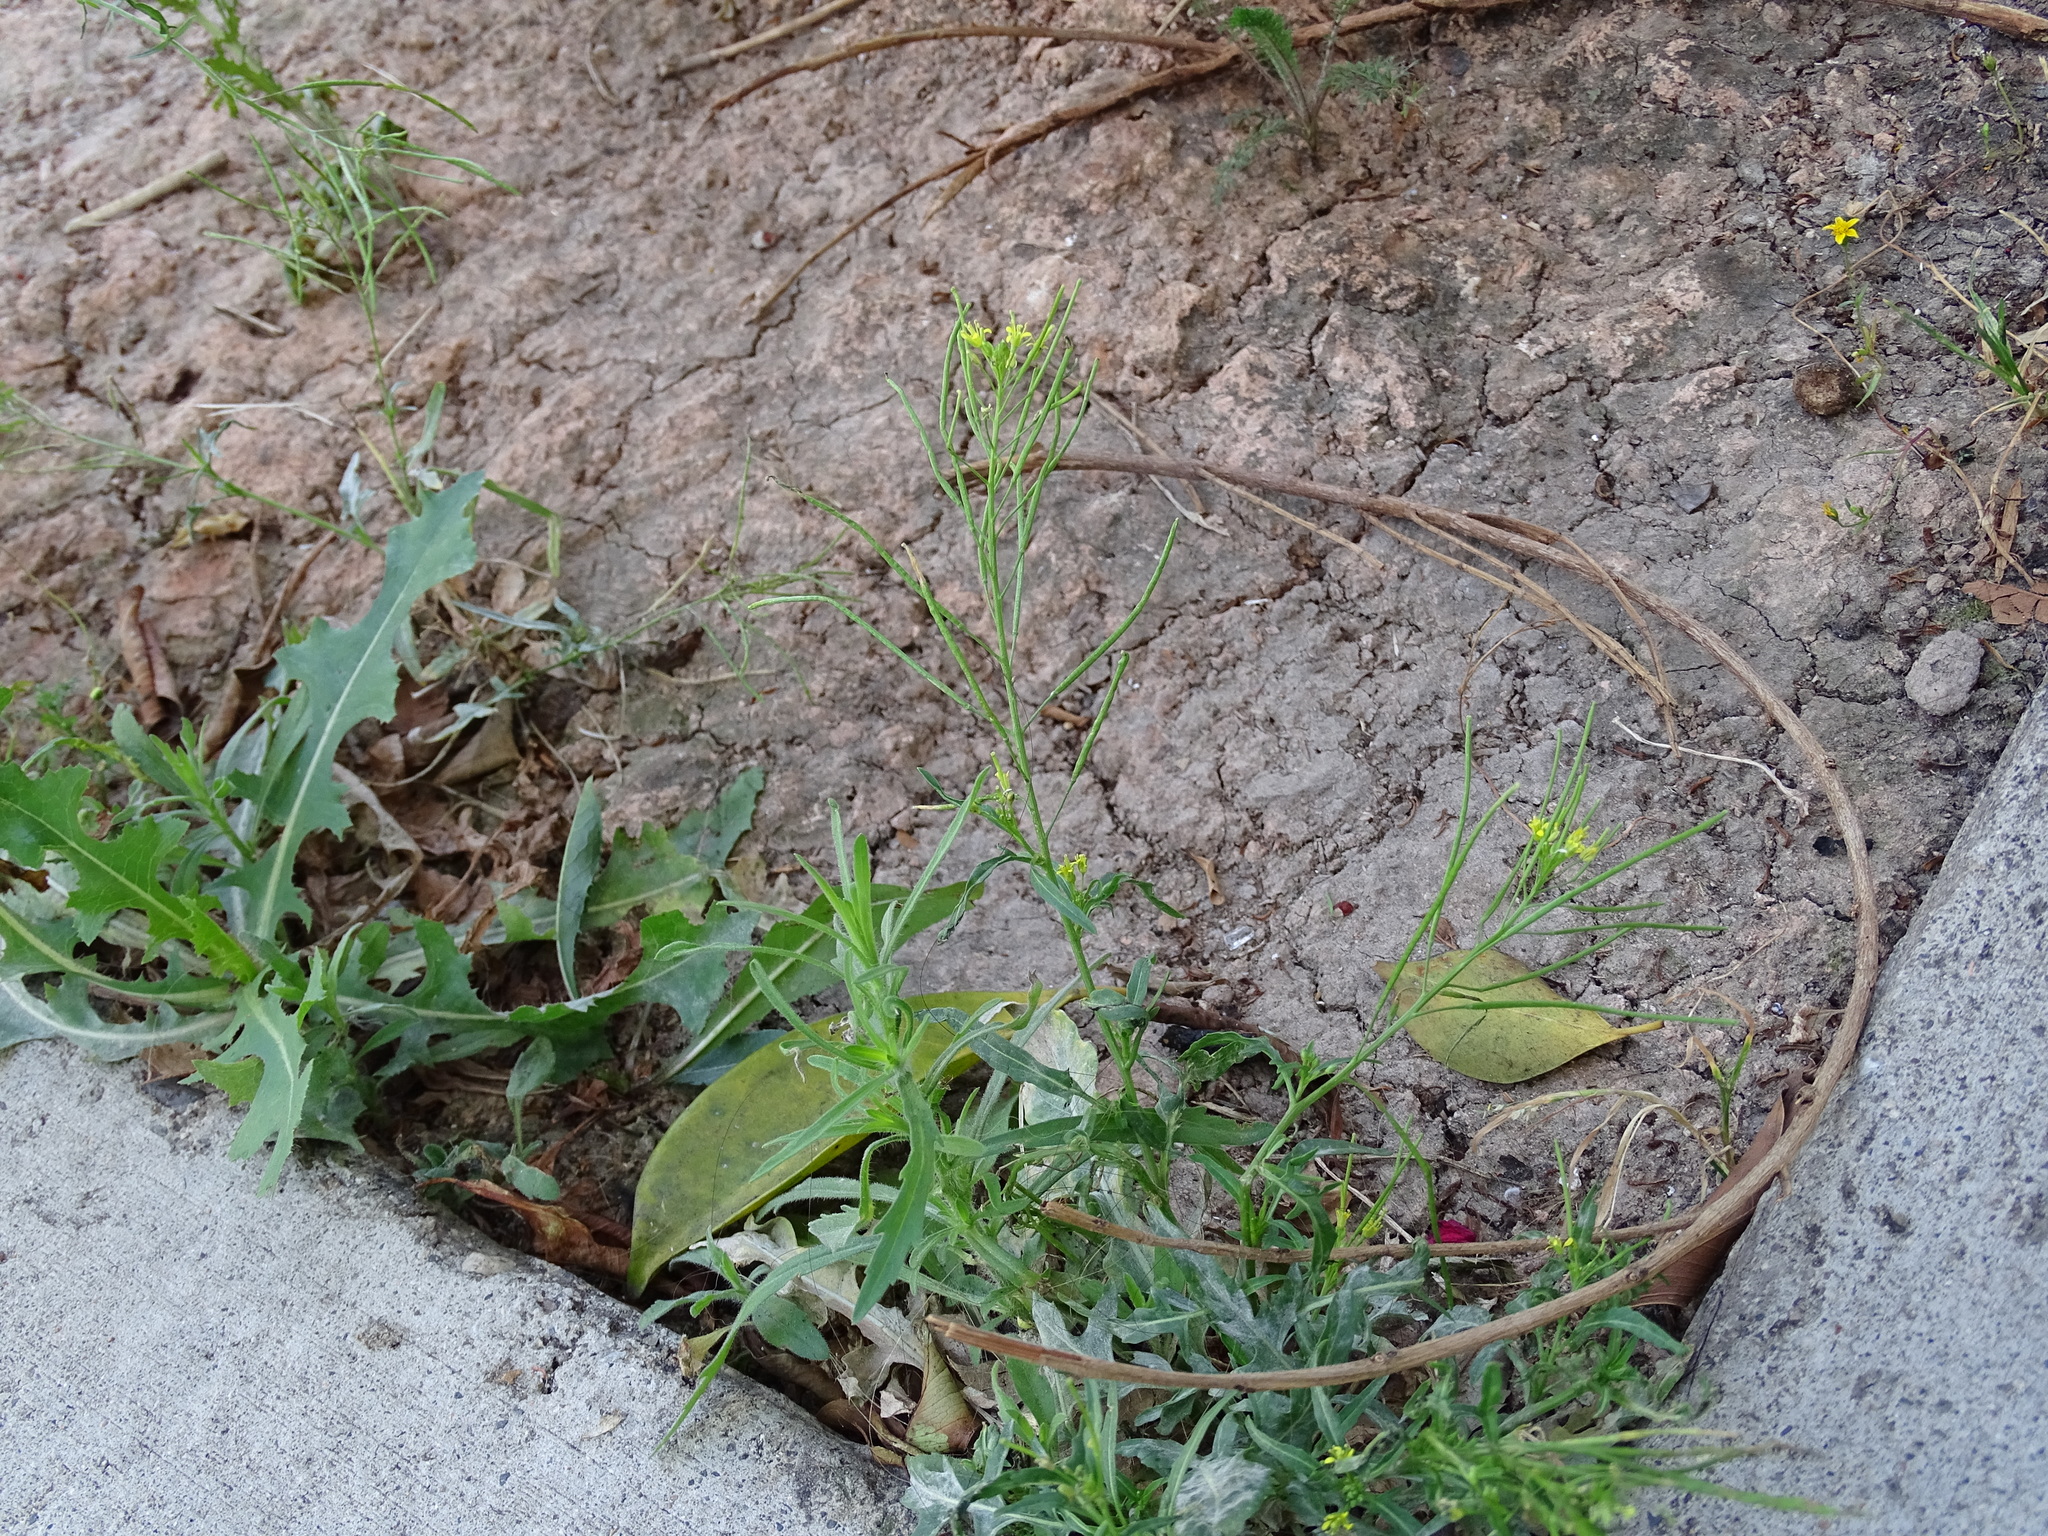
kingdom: Plantae
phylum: Tracheophyta
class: Magnoliopsida
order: Brassicales
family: Brassicaceae
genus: Sisymbrium
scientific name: Sisymbrium irio
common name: London rocket
